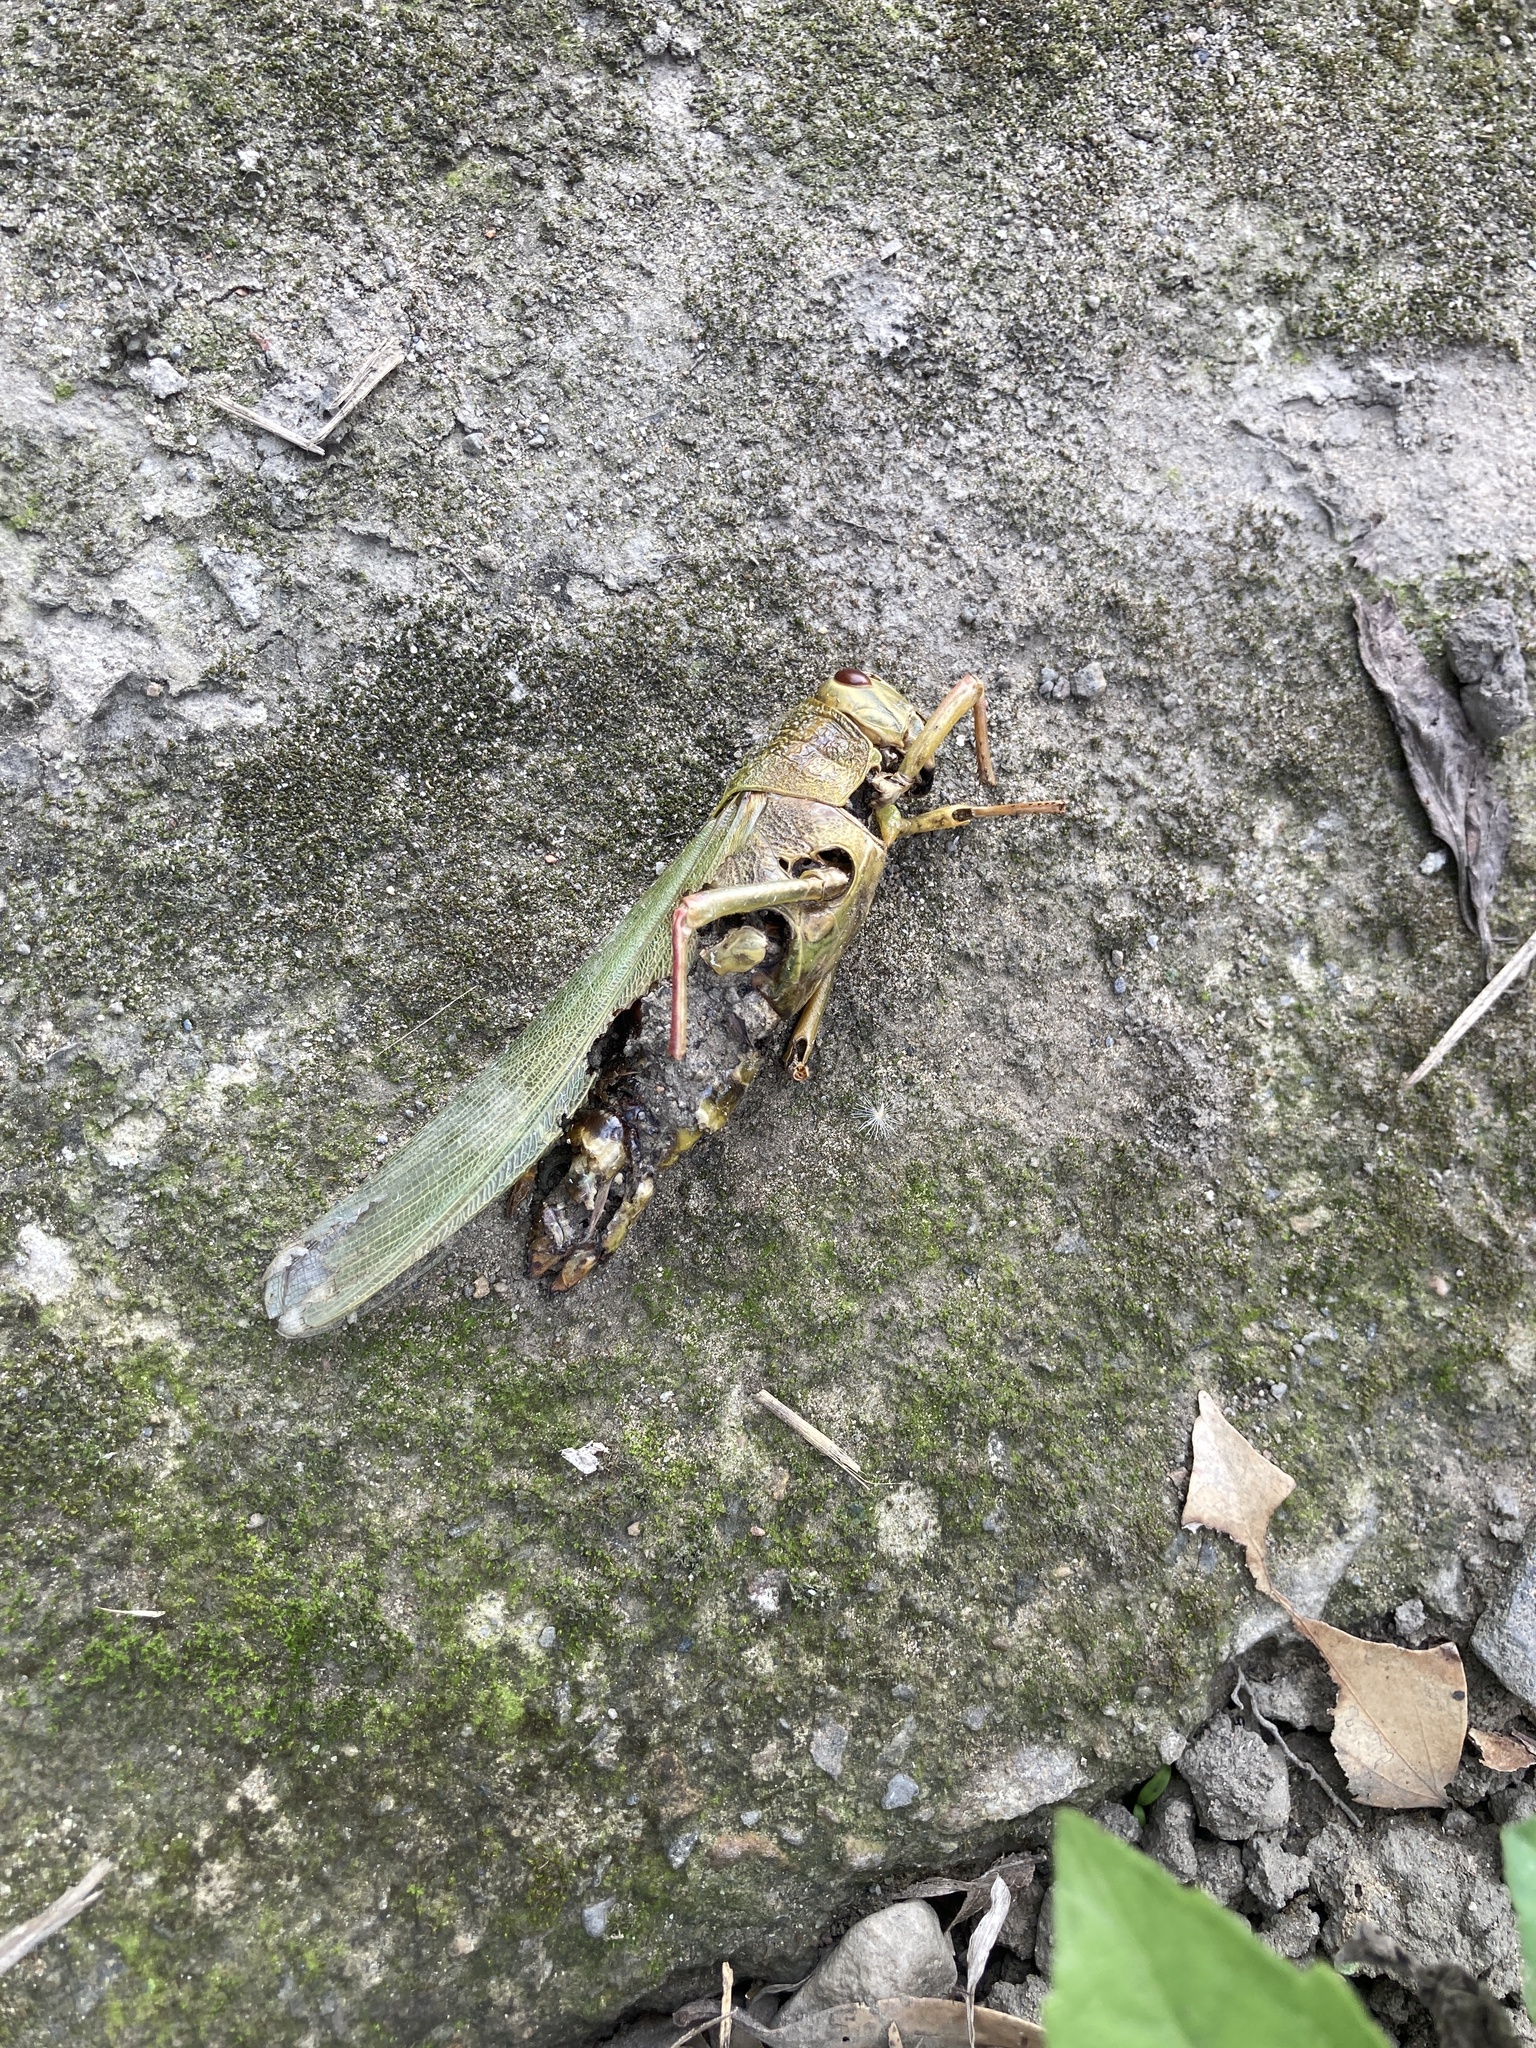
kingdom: Animalia
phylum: Arthropoda
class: Insecta
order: Orthoptera
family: Acrididae
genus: Chondracris
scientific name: Chondracris rosea
